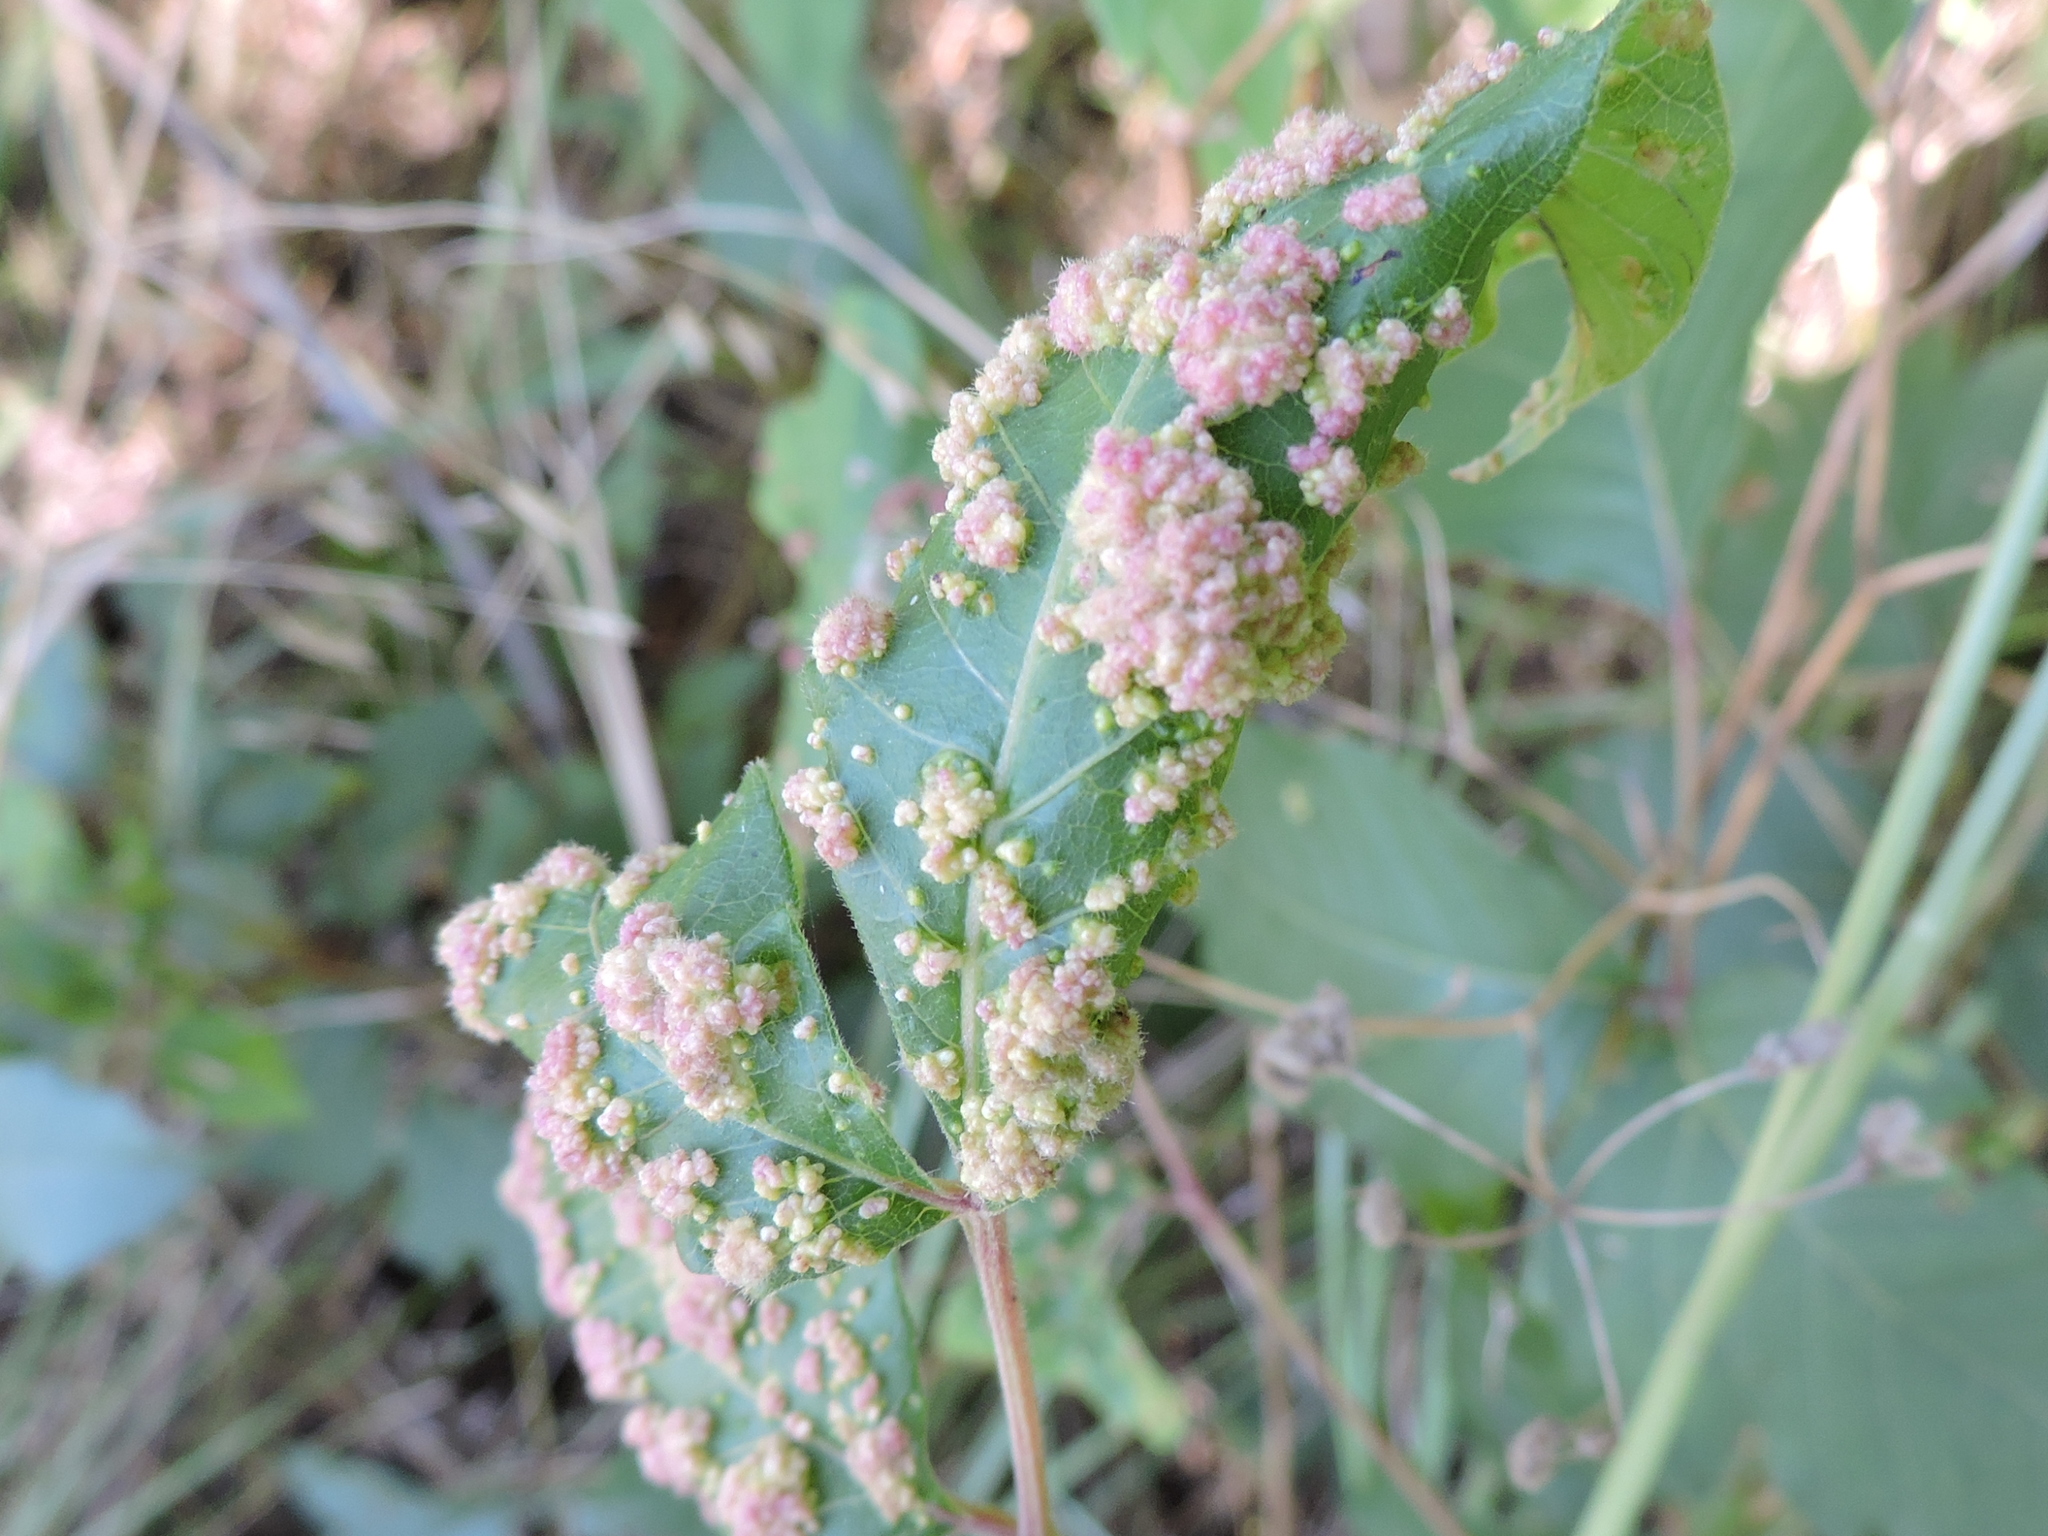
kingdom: Animalia
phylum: Arthropoda
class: Arachnida
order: Trombidiformes
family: Eriophyidae
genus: Aculops
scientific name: Aculops
